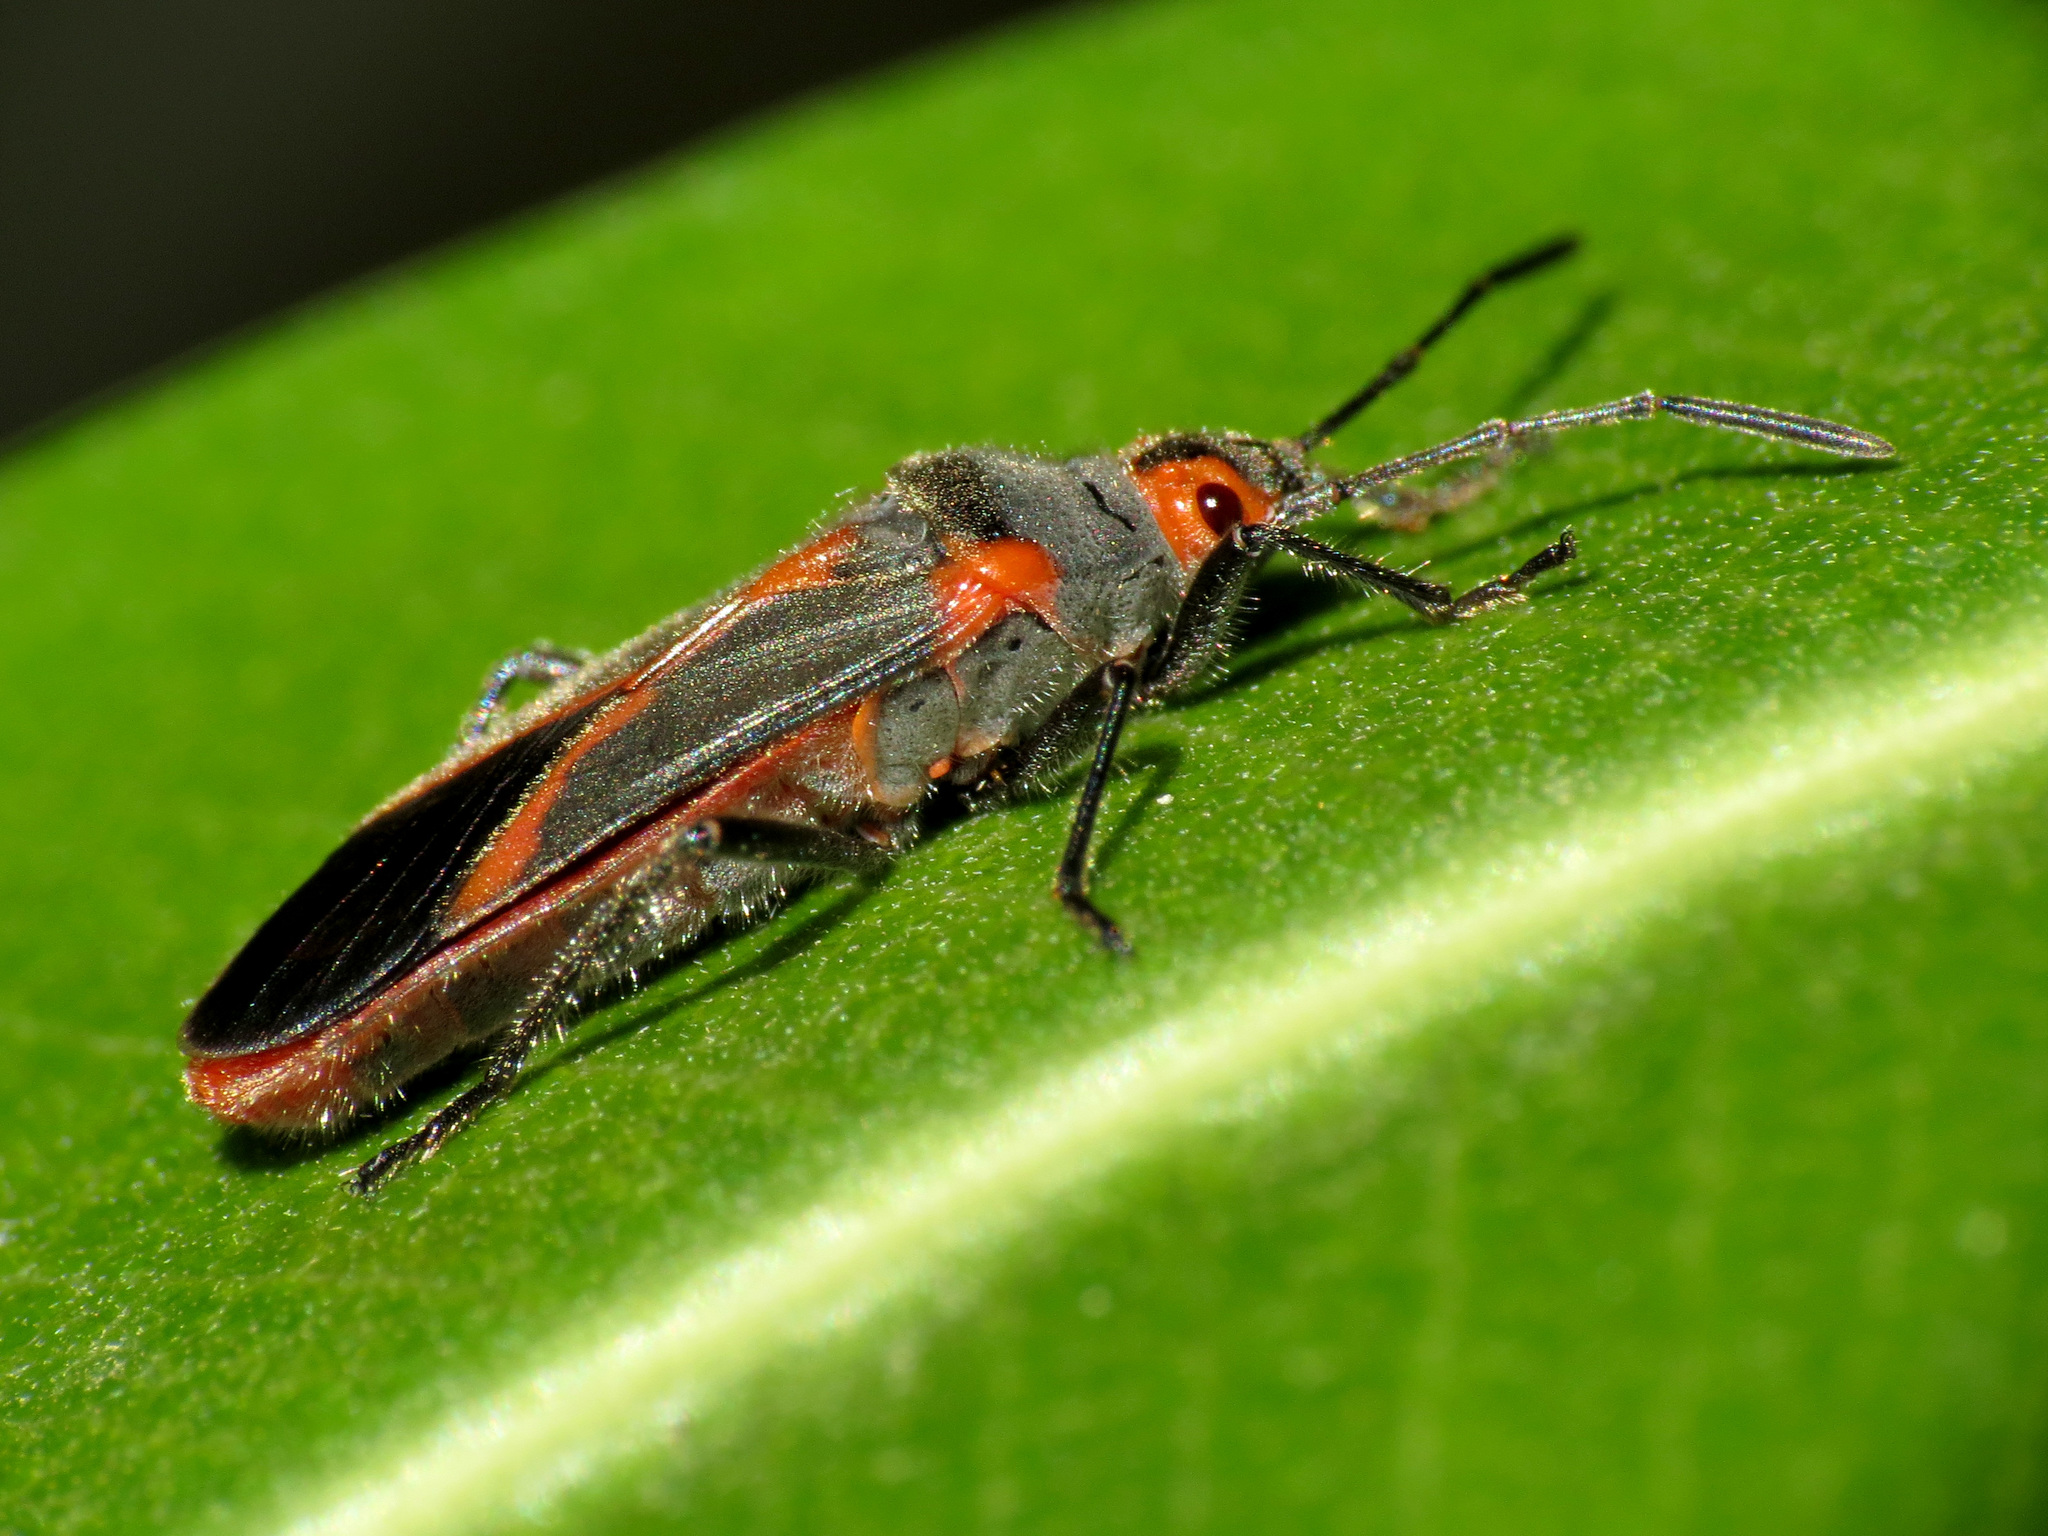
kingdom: Animalia
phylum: Arthropoda
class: Insecta
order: Hemiptera
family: Lygaeidae
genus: Caenocoris
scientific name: Caenocoris nerii
